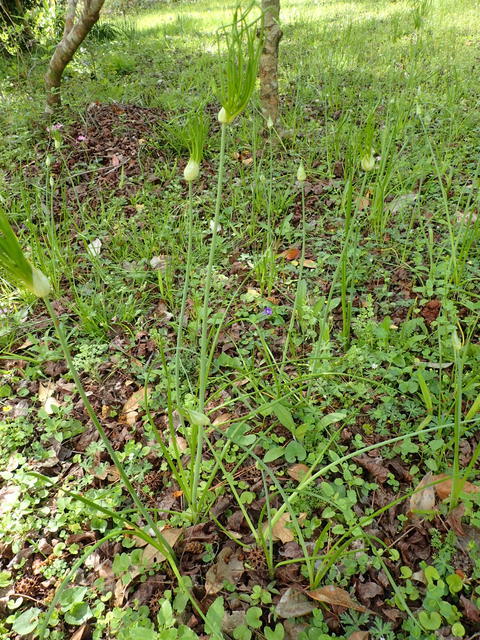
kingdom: Plantae
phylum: Tracheophyta
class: Liliopsida
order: Asparagales
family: Amaryllidaceae
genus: Allium
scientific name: Allium canadense
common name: Meadow garlic
